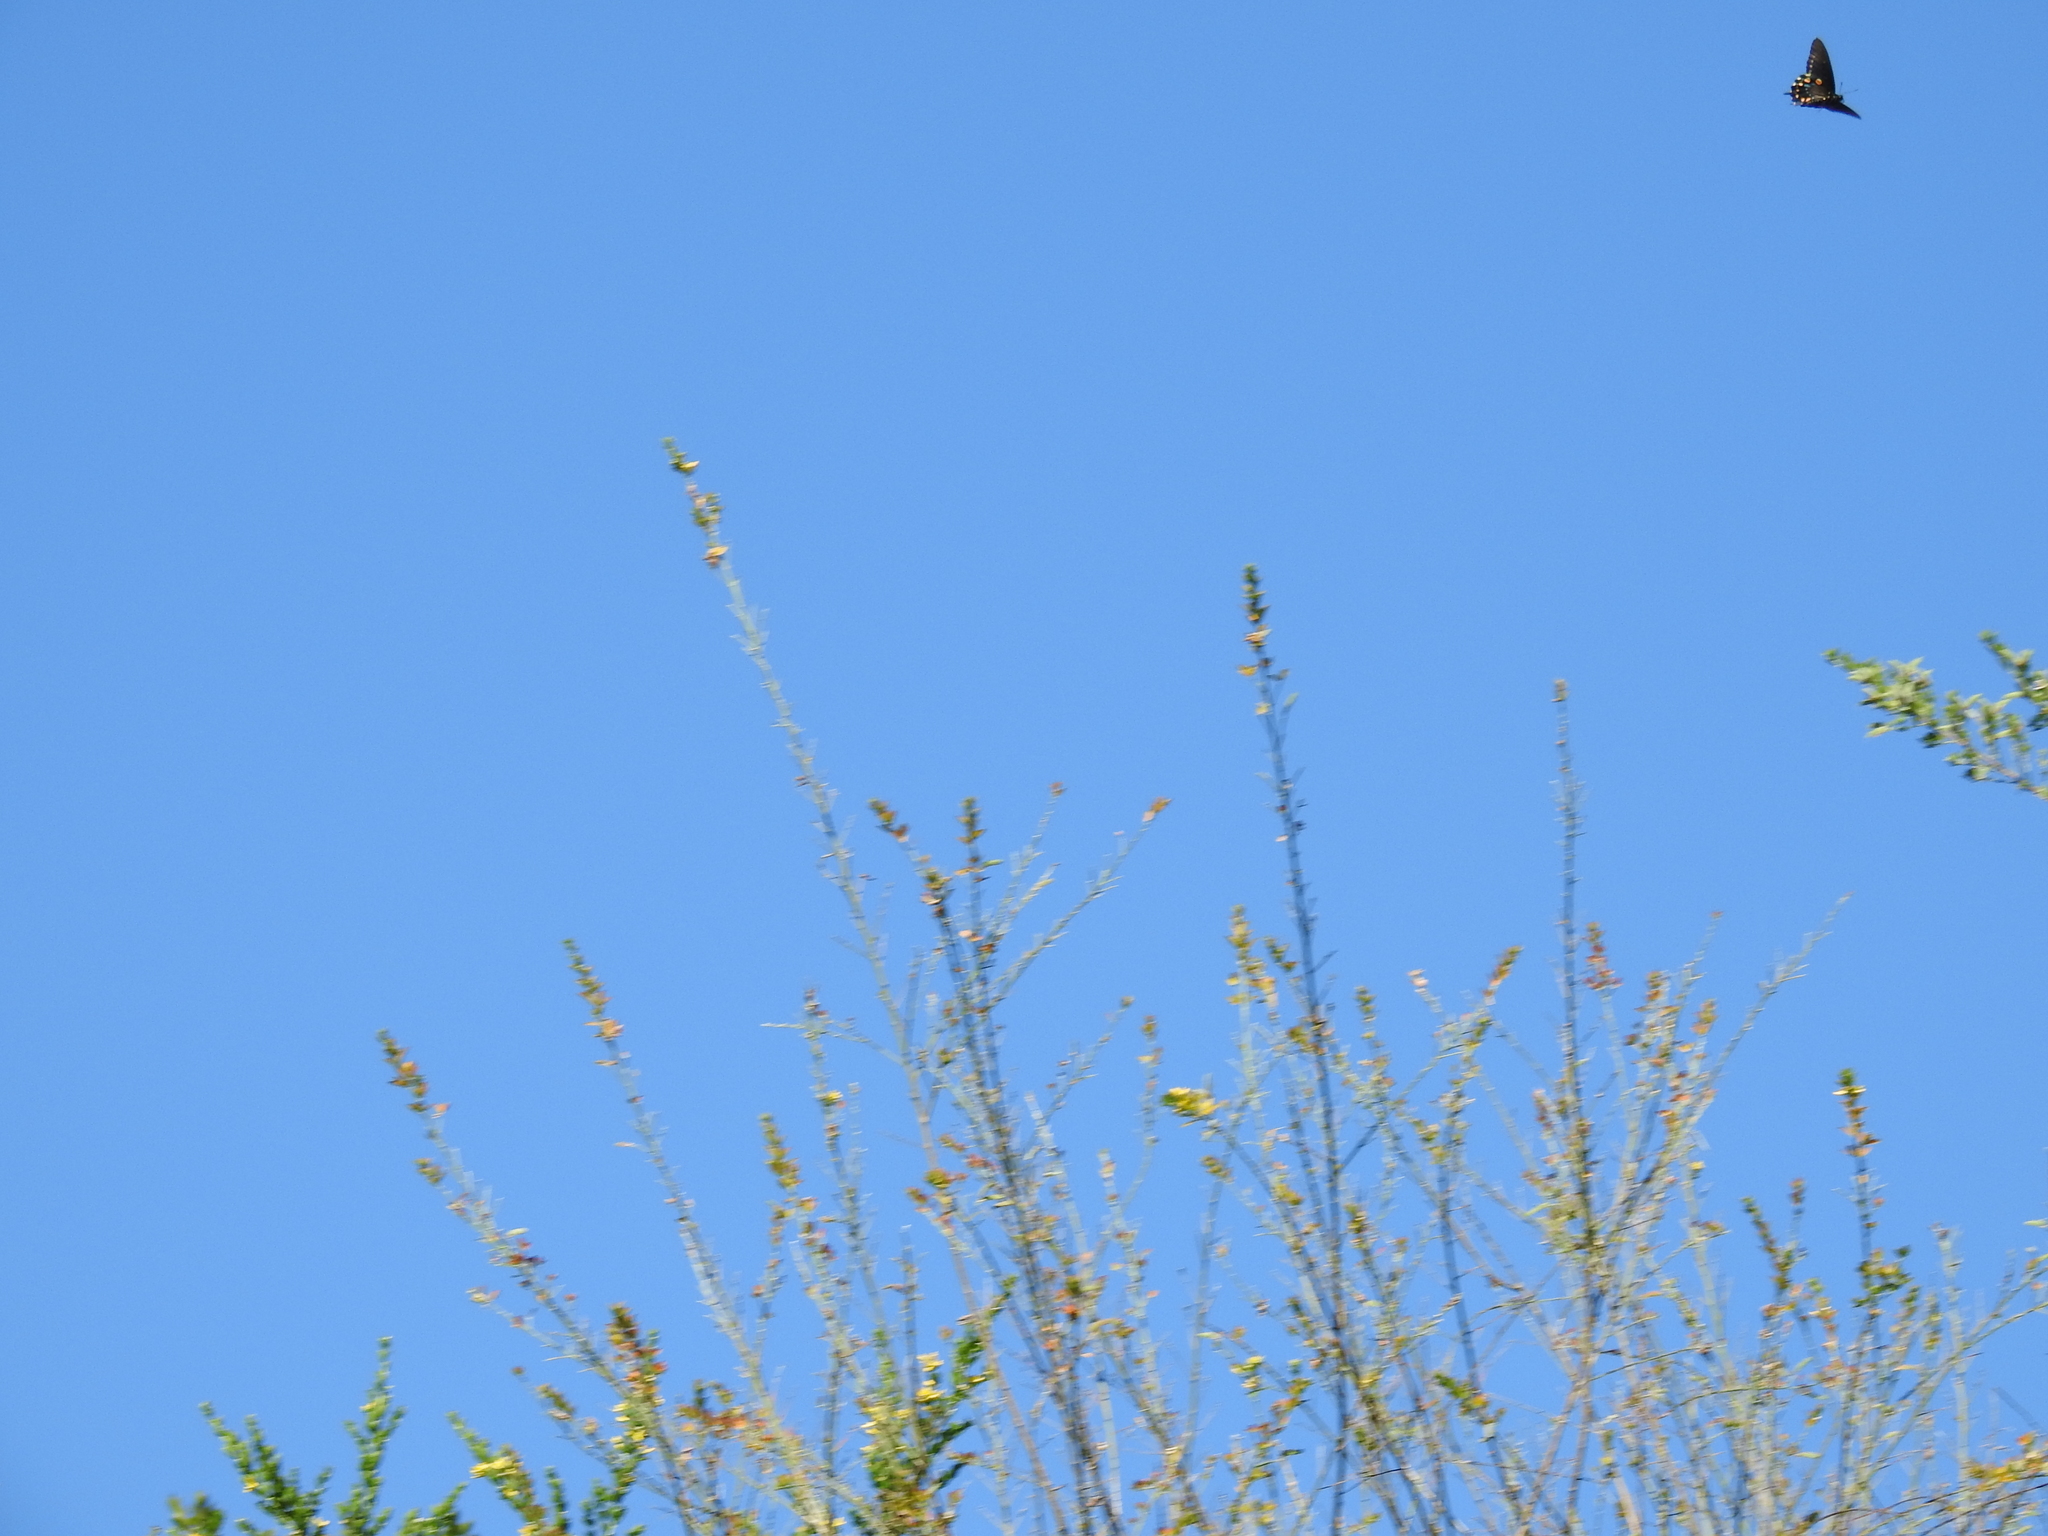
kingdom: Animalia
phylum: Arthropoda
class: Insecta
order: Lepidoptera
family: Papilionidae
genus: Battus
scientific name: Battus philenor
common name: Pipevine swallowtail
